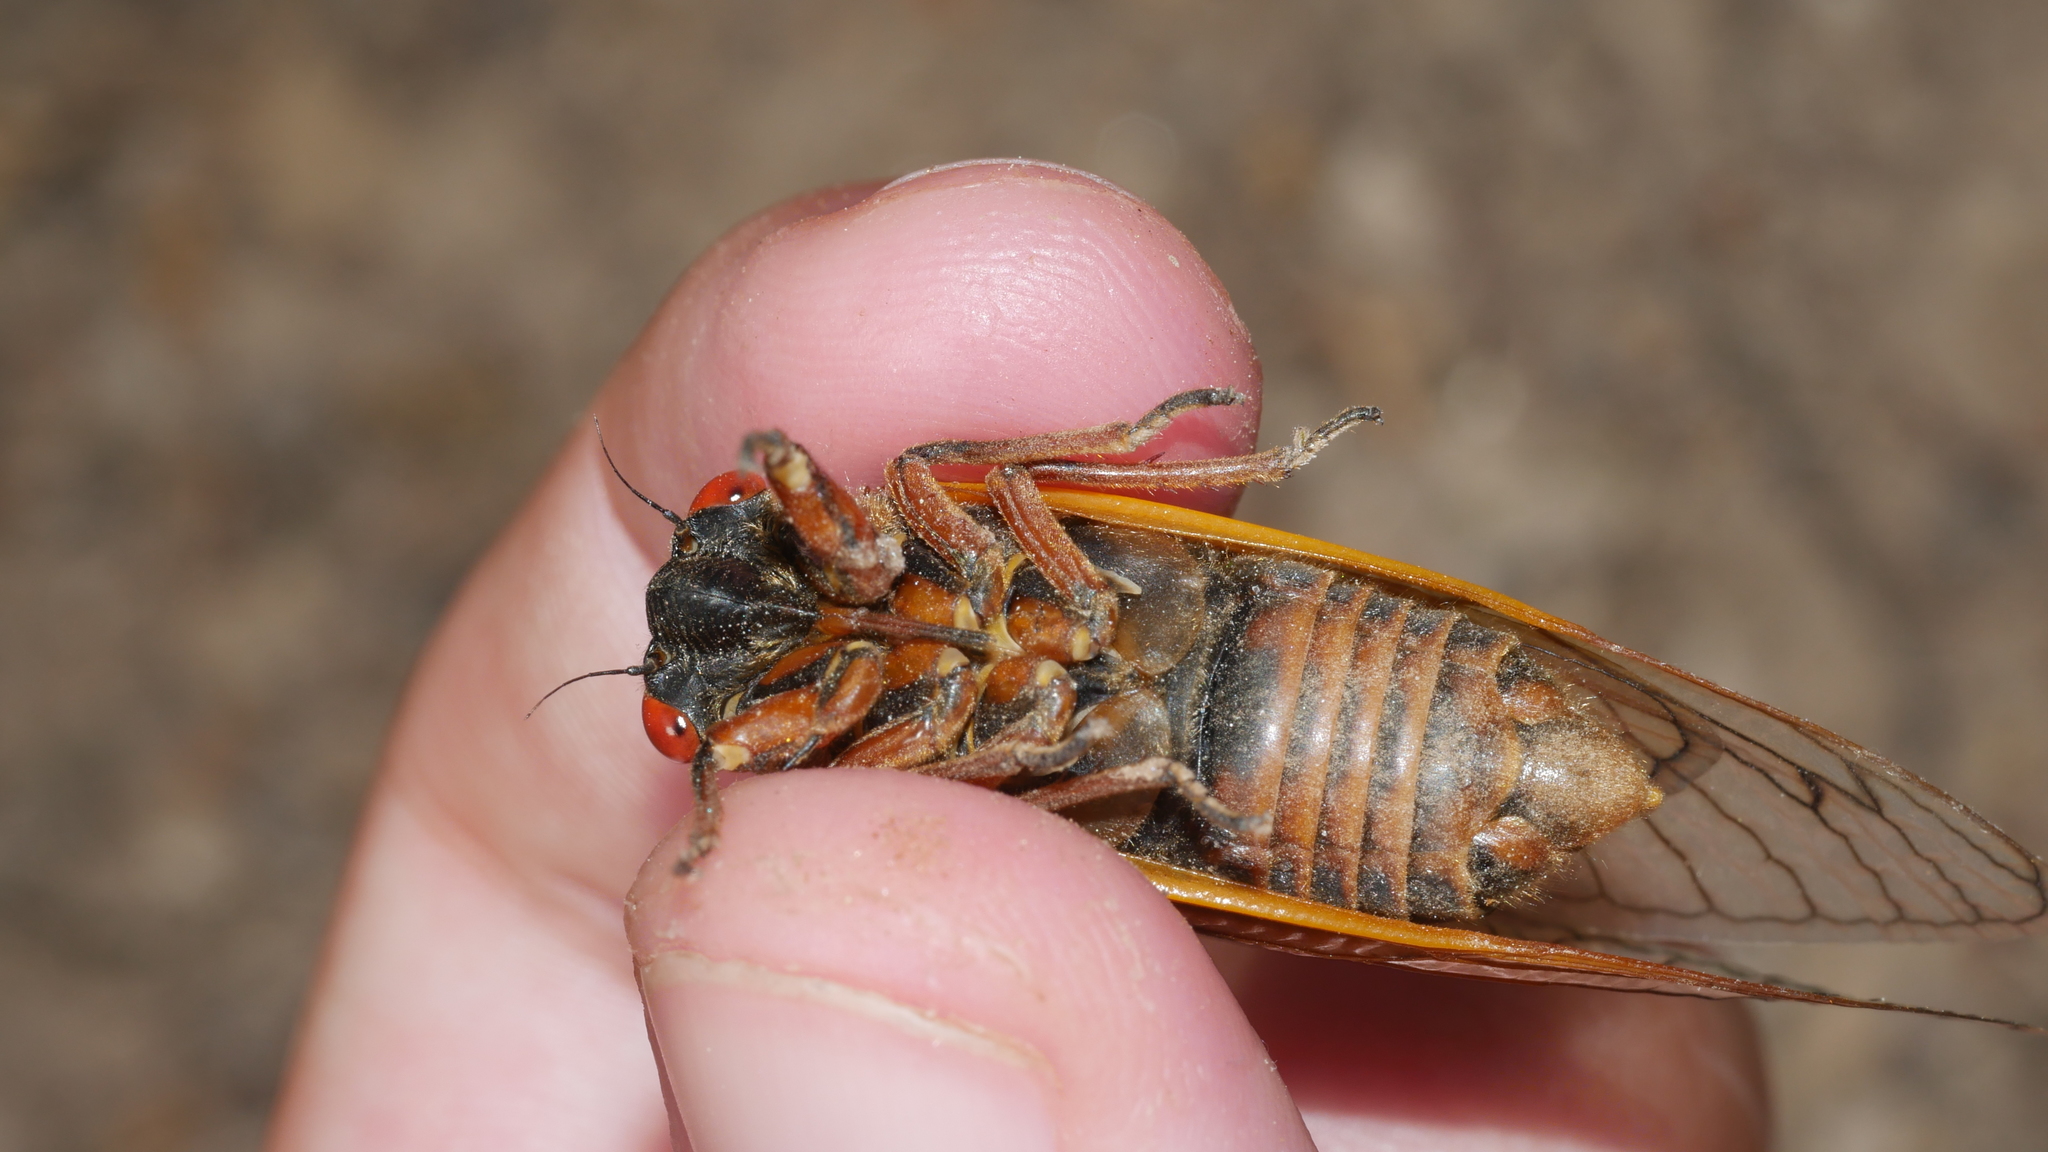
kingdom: Animalia
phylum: Arthropoda
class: Insecta
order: Hemiptera
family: Cicadidae
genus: Magicicada
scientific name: Magicicada septendecim
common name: Periodical cicada
